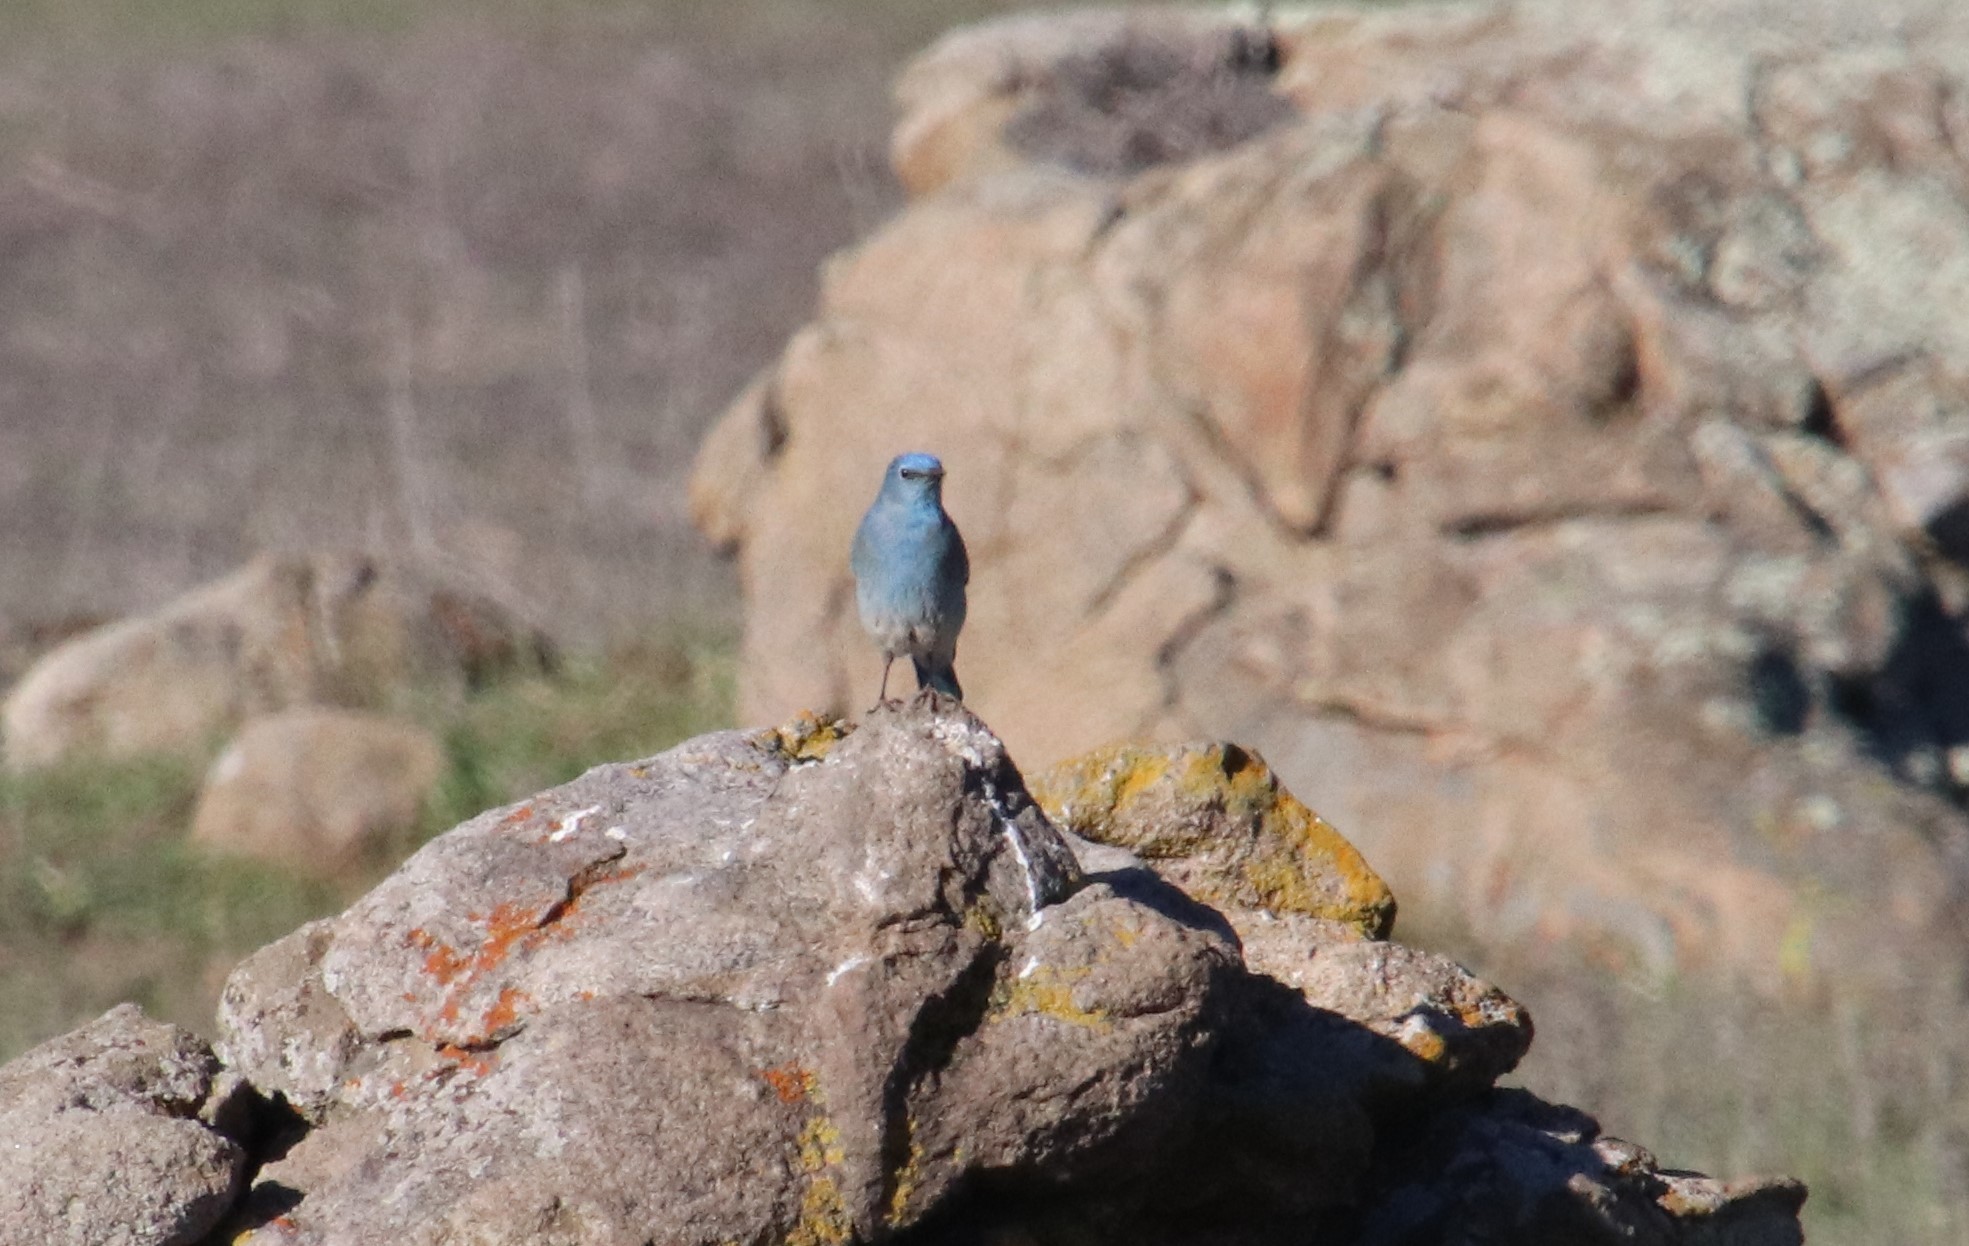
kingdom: Animalia
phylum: Chordata
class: Aves
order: Passeriformes
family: Turdidae
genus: Sialia
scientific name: Sialia currucoides
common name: Mountain bluebird
